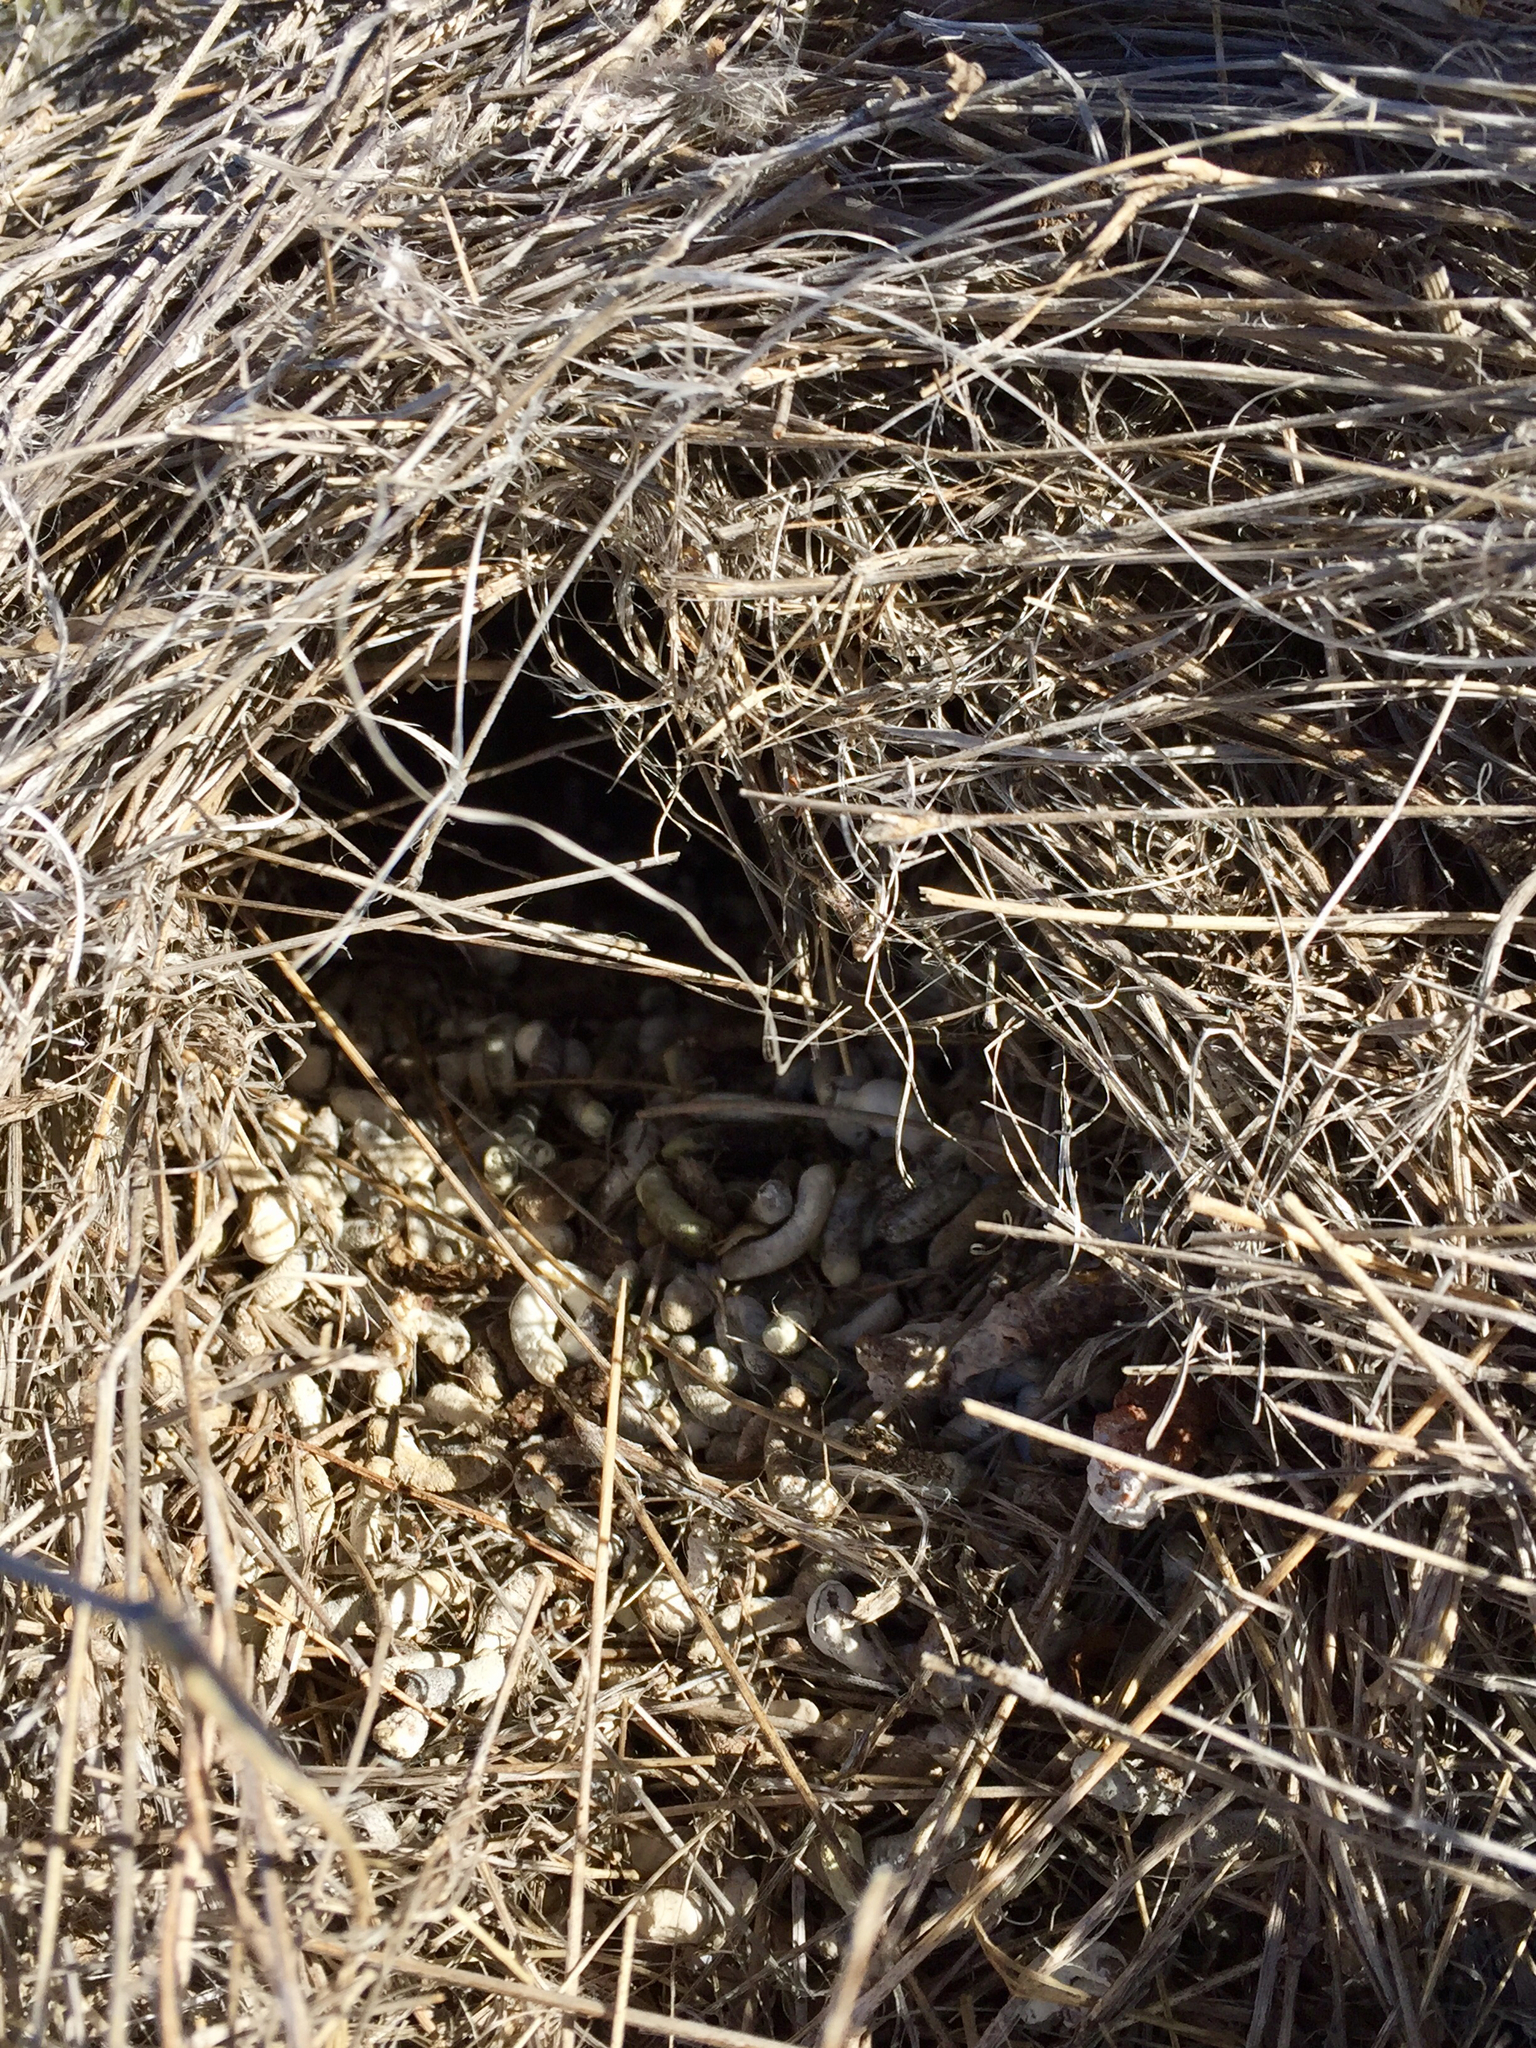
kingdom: Animalia
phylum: Chordata
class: Aves
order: Passeriformes
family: Troglodytidae
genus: Campylorhynchus
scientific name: Campylorhynchus brunneicapillus
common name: Cactus wren
